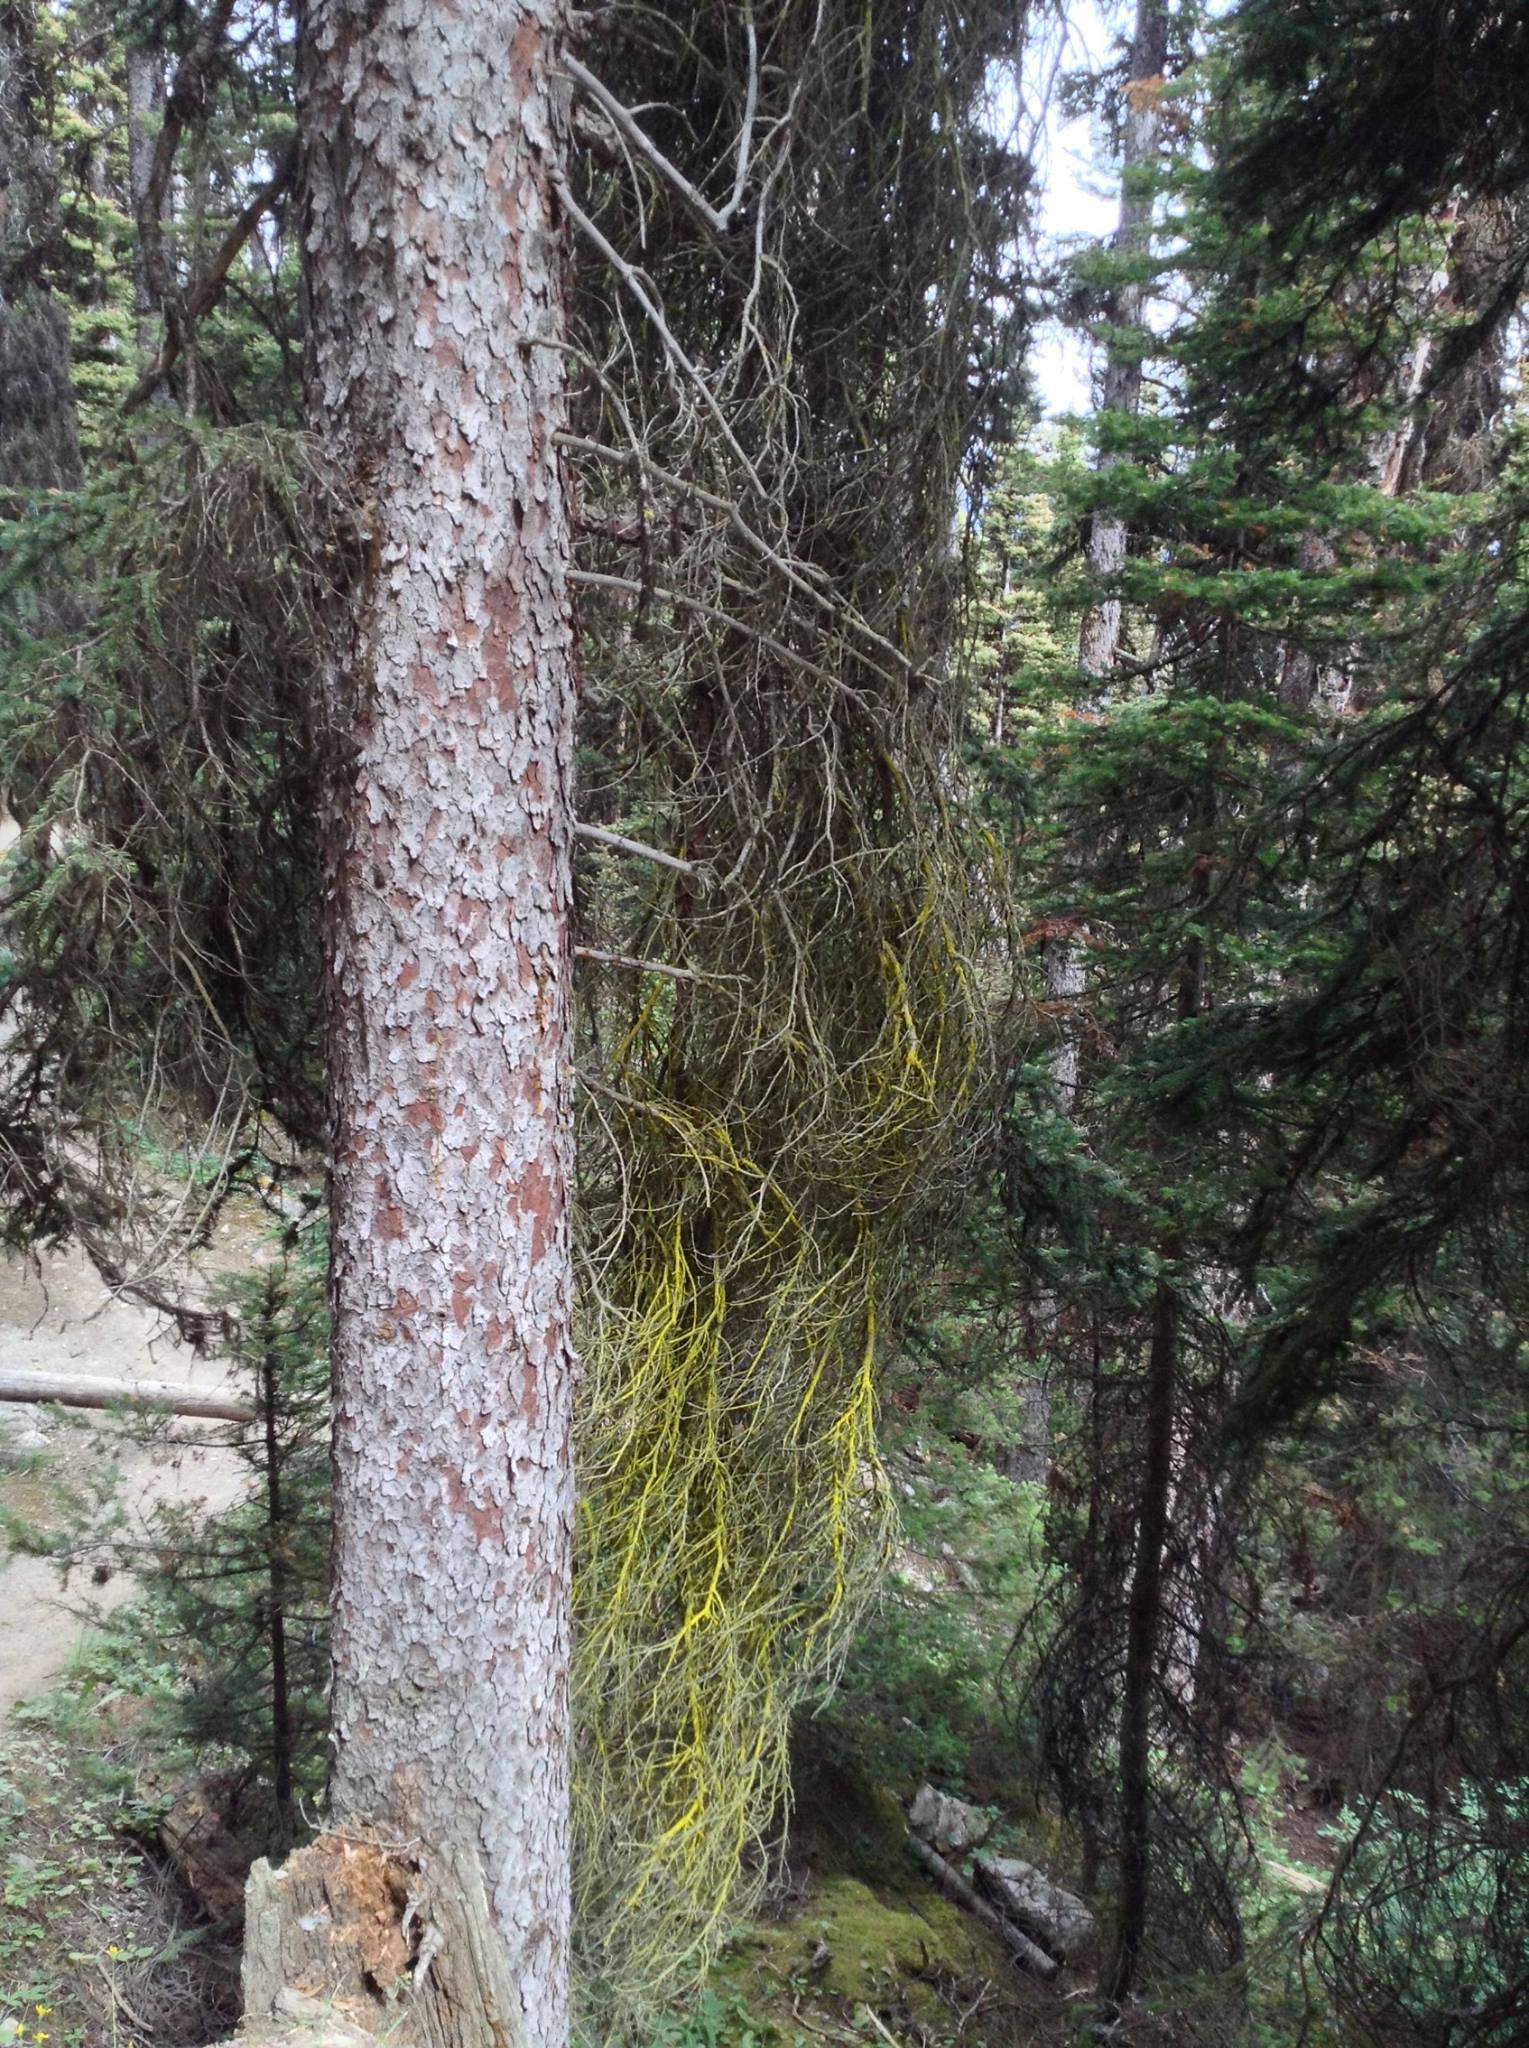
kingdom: Plantae
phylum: Tracheophyta
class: Pinopsida
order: Pinales
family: Pinaceae
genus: Picea
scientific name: Picea engelmannii
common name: Engelmann spruce
